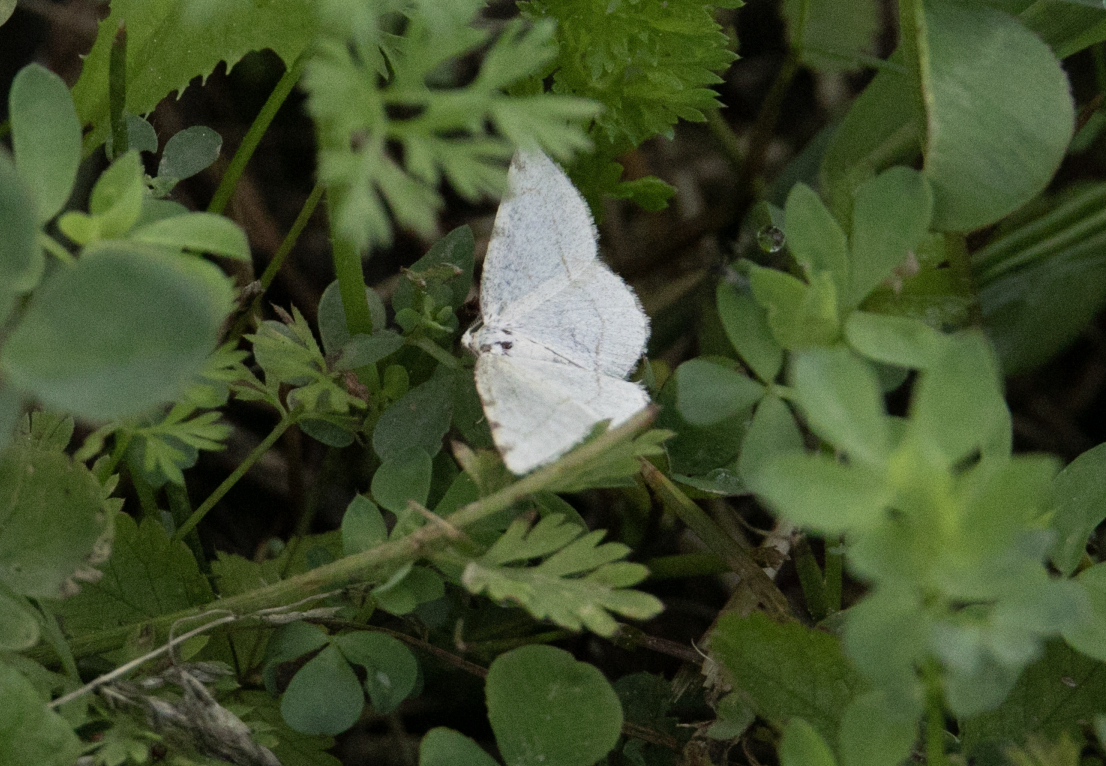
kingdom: Animalia
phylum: Arthropoda
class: Insecta
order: Lepidoptera
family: Geometridae
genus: Stegania
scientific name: Stegania trimaculata
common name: Dorset cream wave
